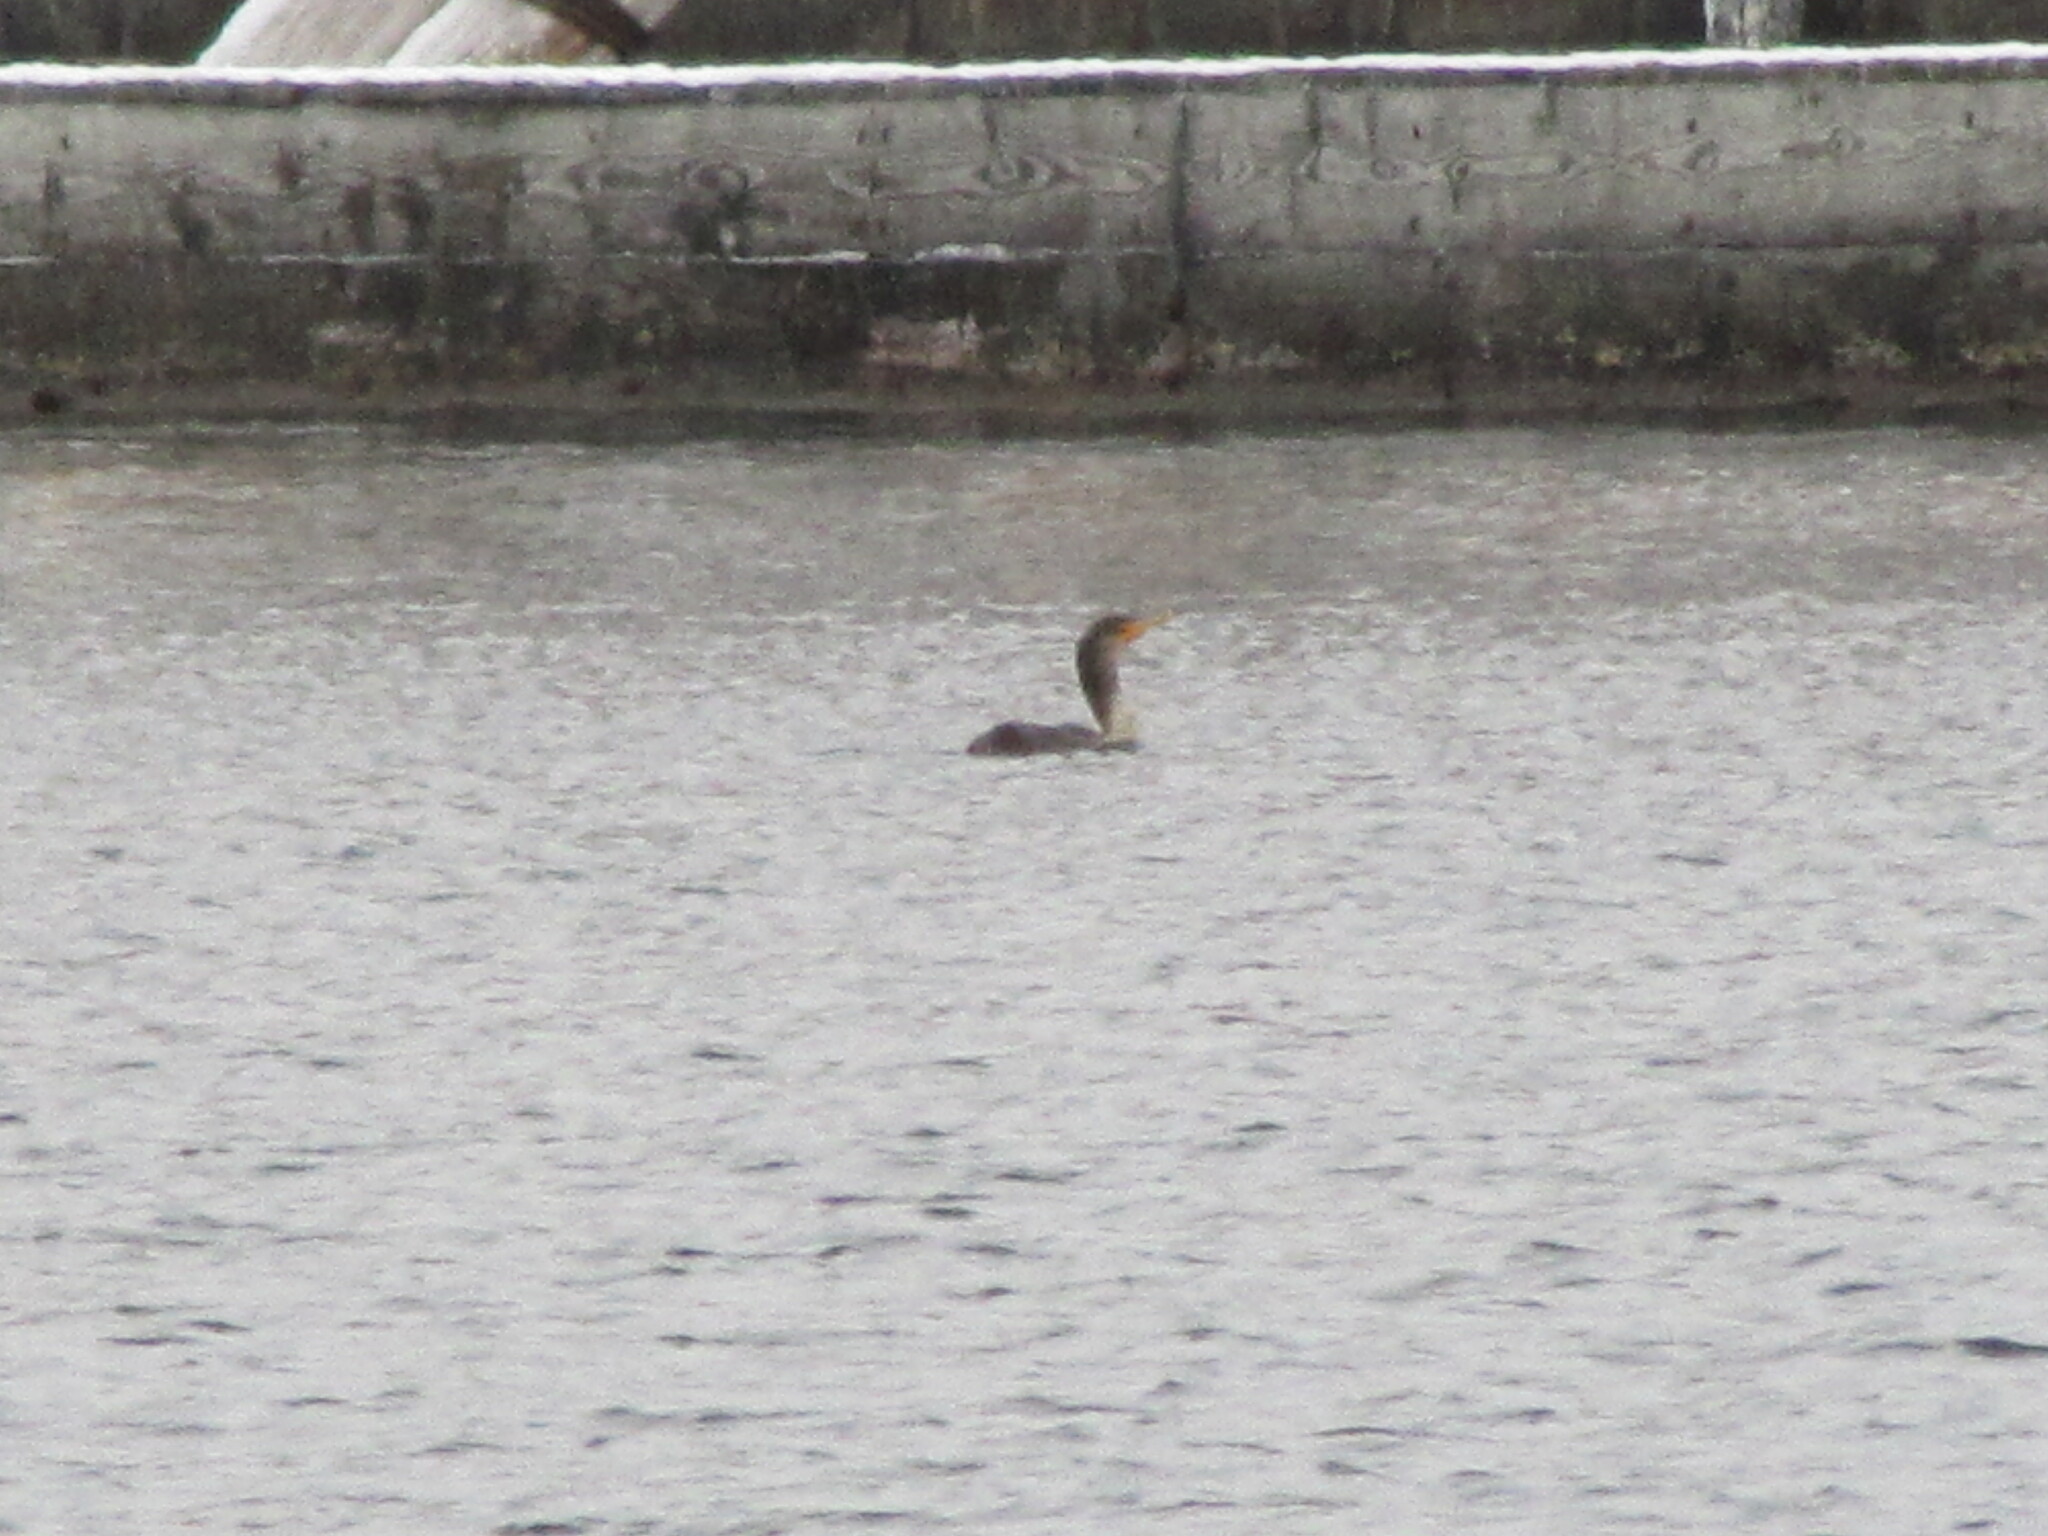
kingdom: Animalia
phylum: Chordata
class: Aves
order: Suliformes
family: Phalacrocoracidae
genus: Phalacrocorax
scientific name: Phalacrocorax auritus
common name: Double-crested cormorant
